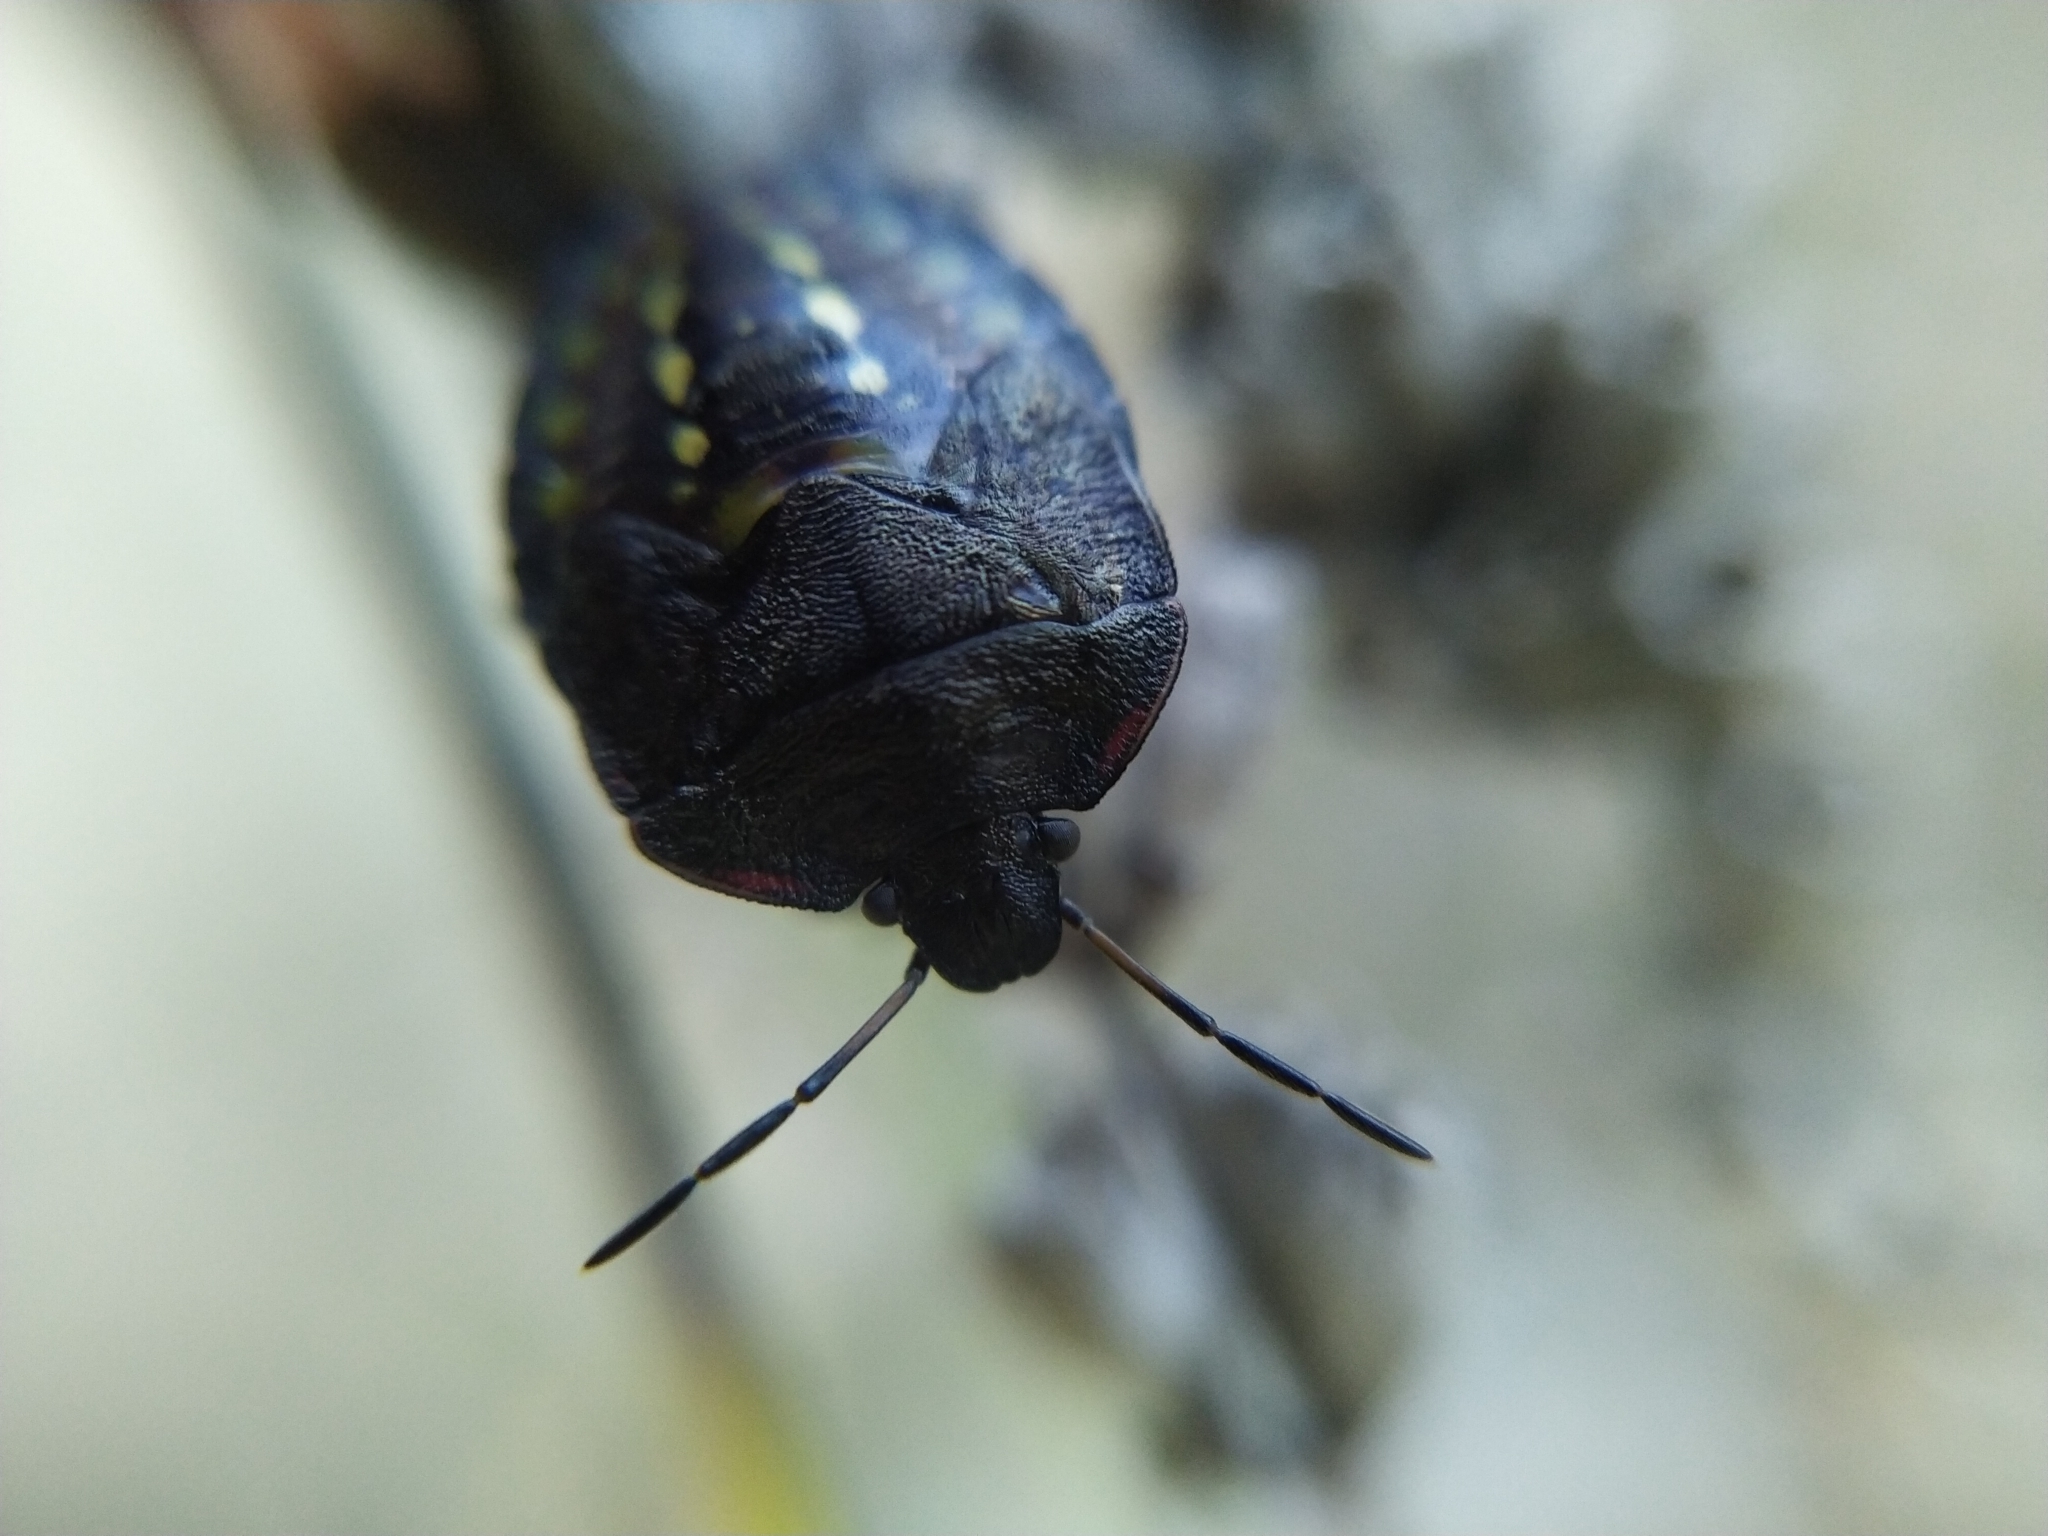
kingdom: Animalia
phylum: Arthropoda
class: Insecta
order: Hemiptera
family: Pentatomidae
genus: Nezara
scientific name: Nezara viridula
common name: Southern green stink bug
